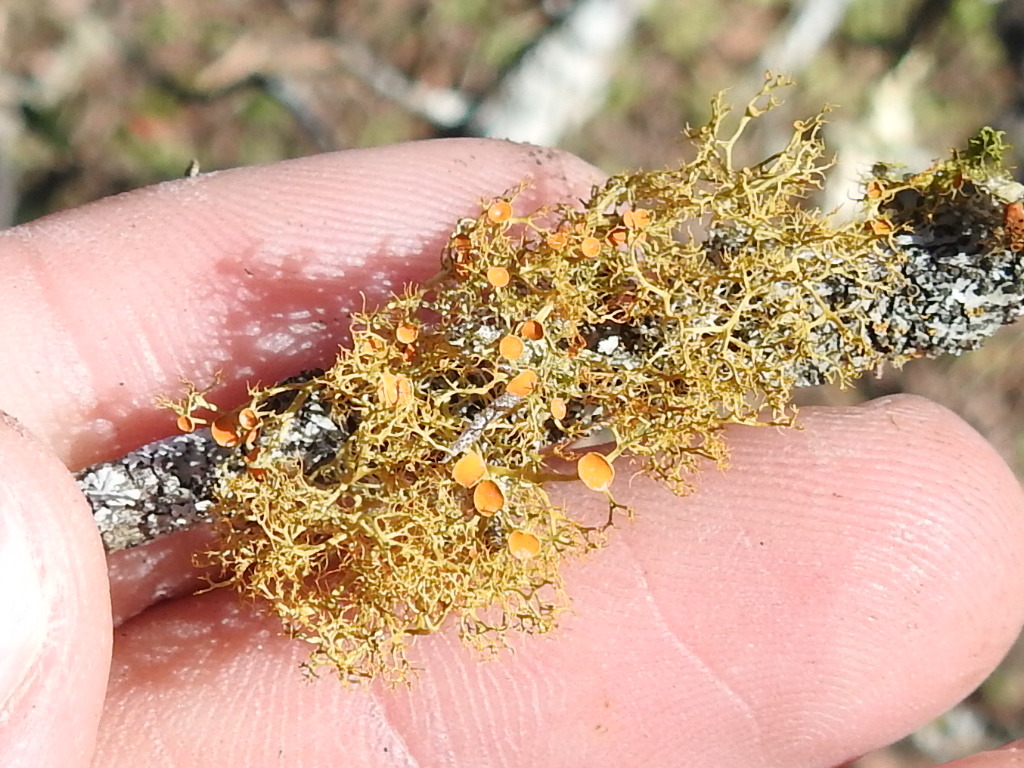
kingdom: Fungi
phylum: Ascomycota
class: Lecanoromycetes
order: Teloschistales
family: Teloschistaceae
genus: Teloschistes
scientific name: Teloschistes exilis
